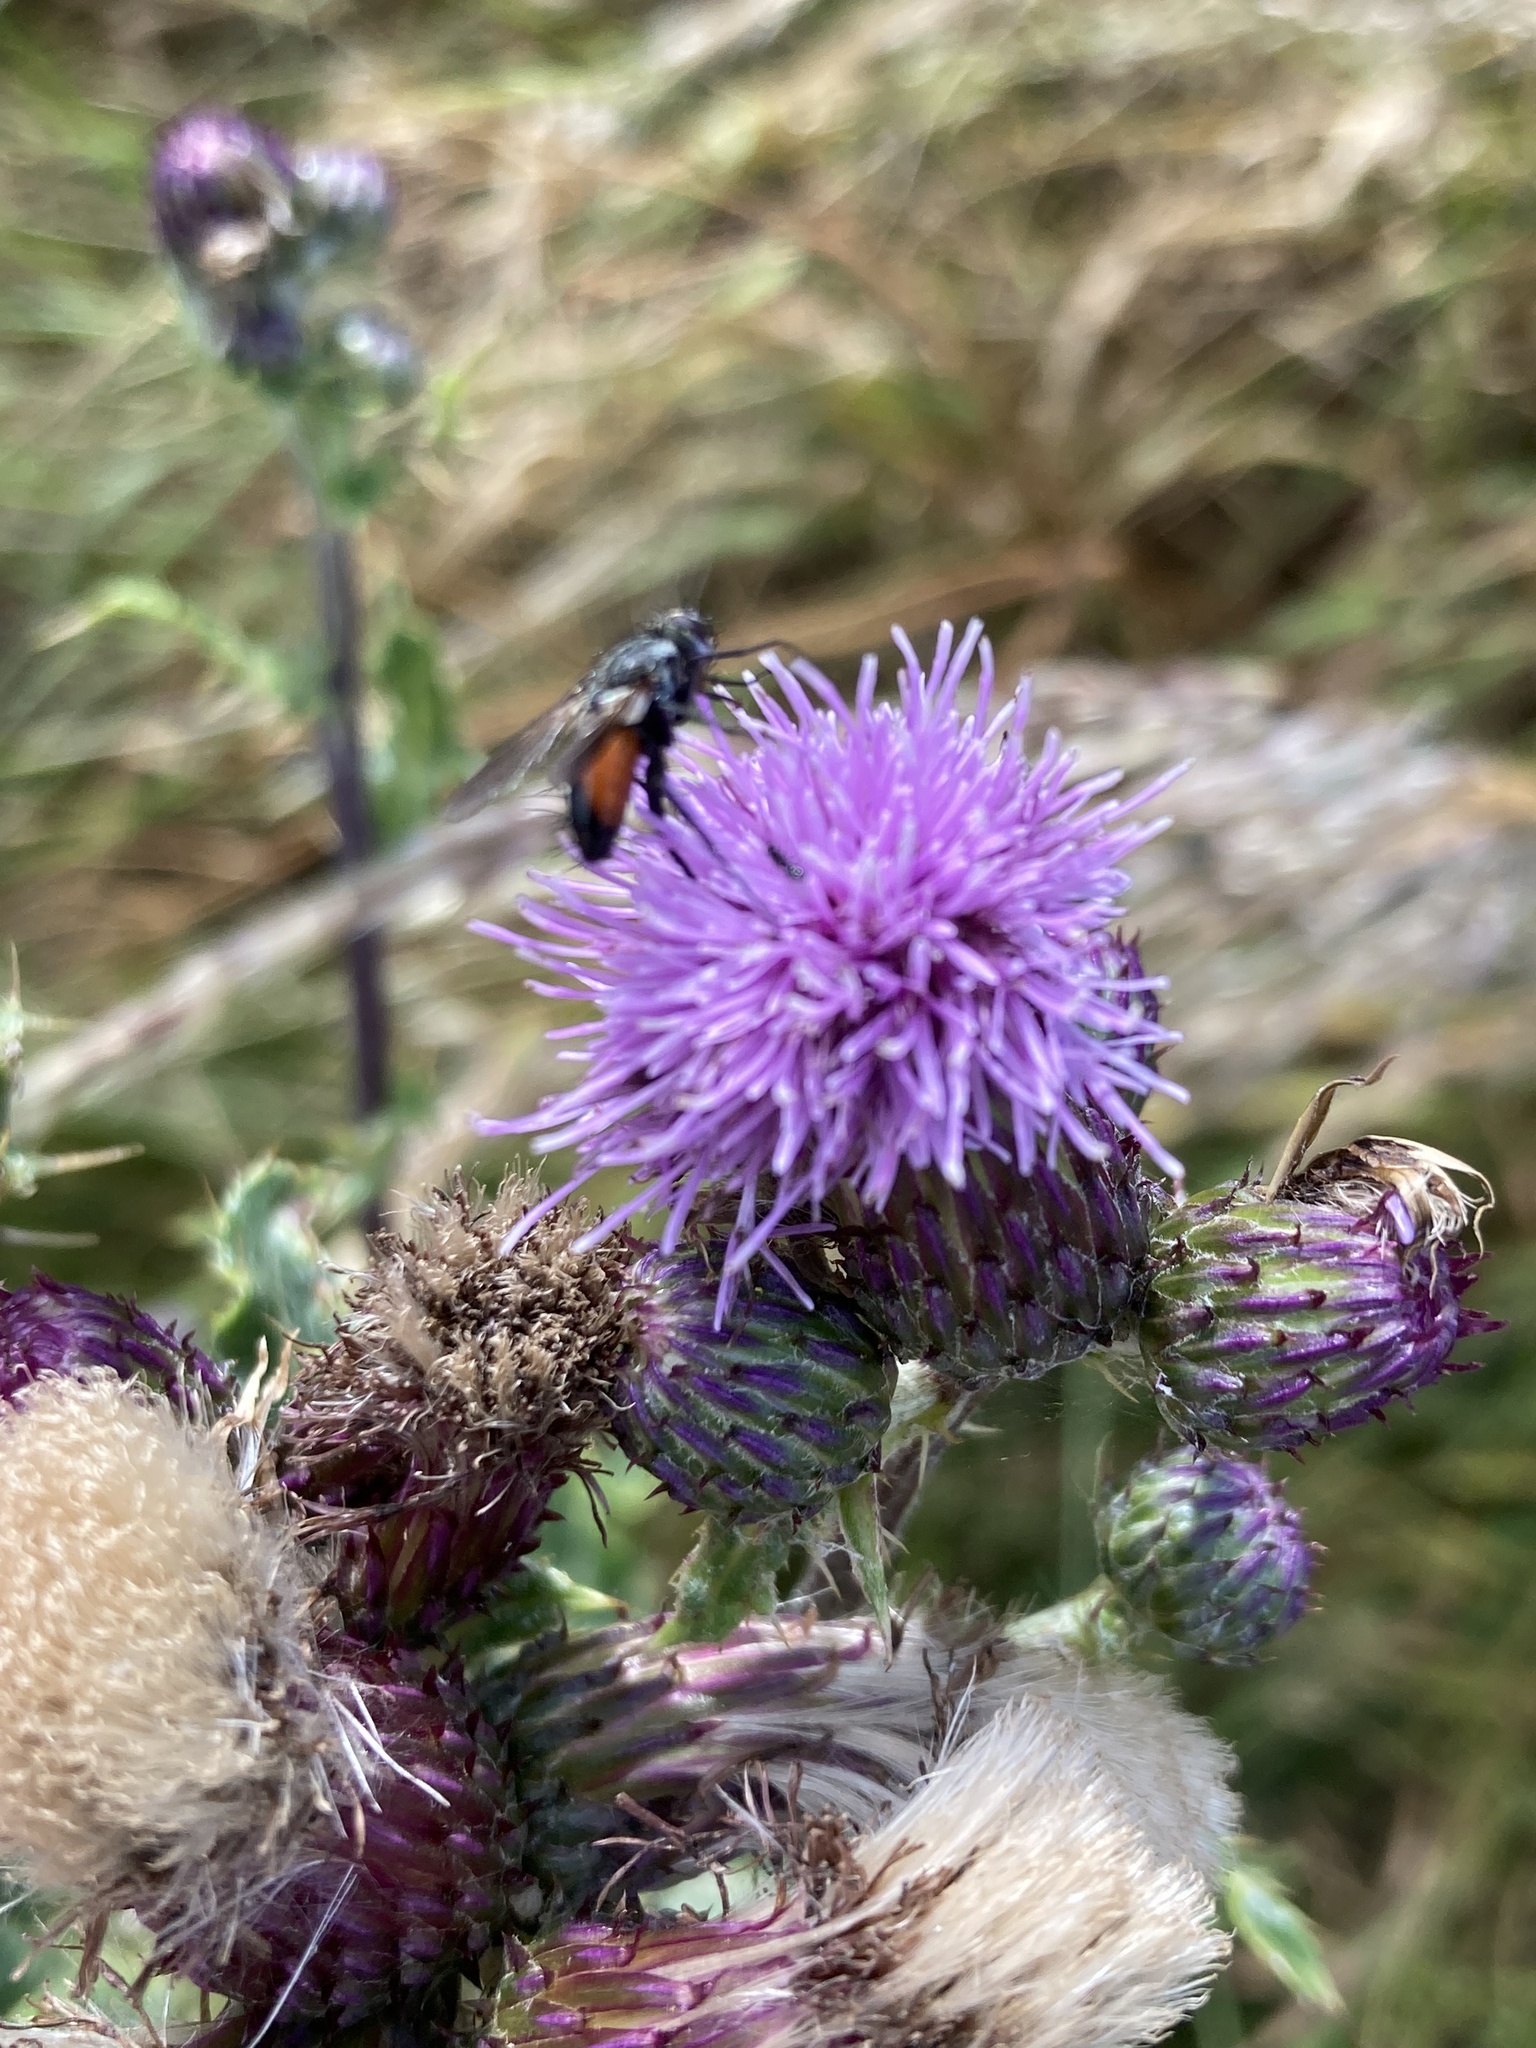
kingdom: Animalia
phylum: Arthropoda
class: Insecta
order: Diptera
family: Tachinidae
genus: Eriothrix
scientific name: Eriothrix rufomaculatus
